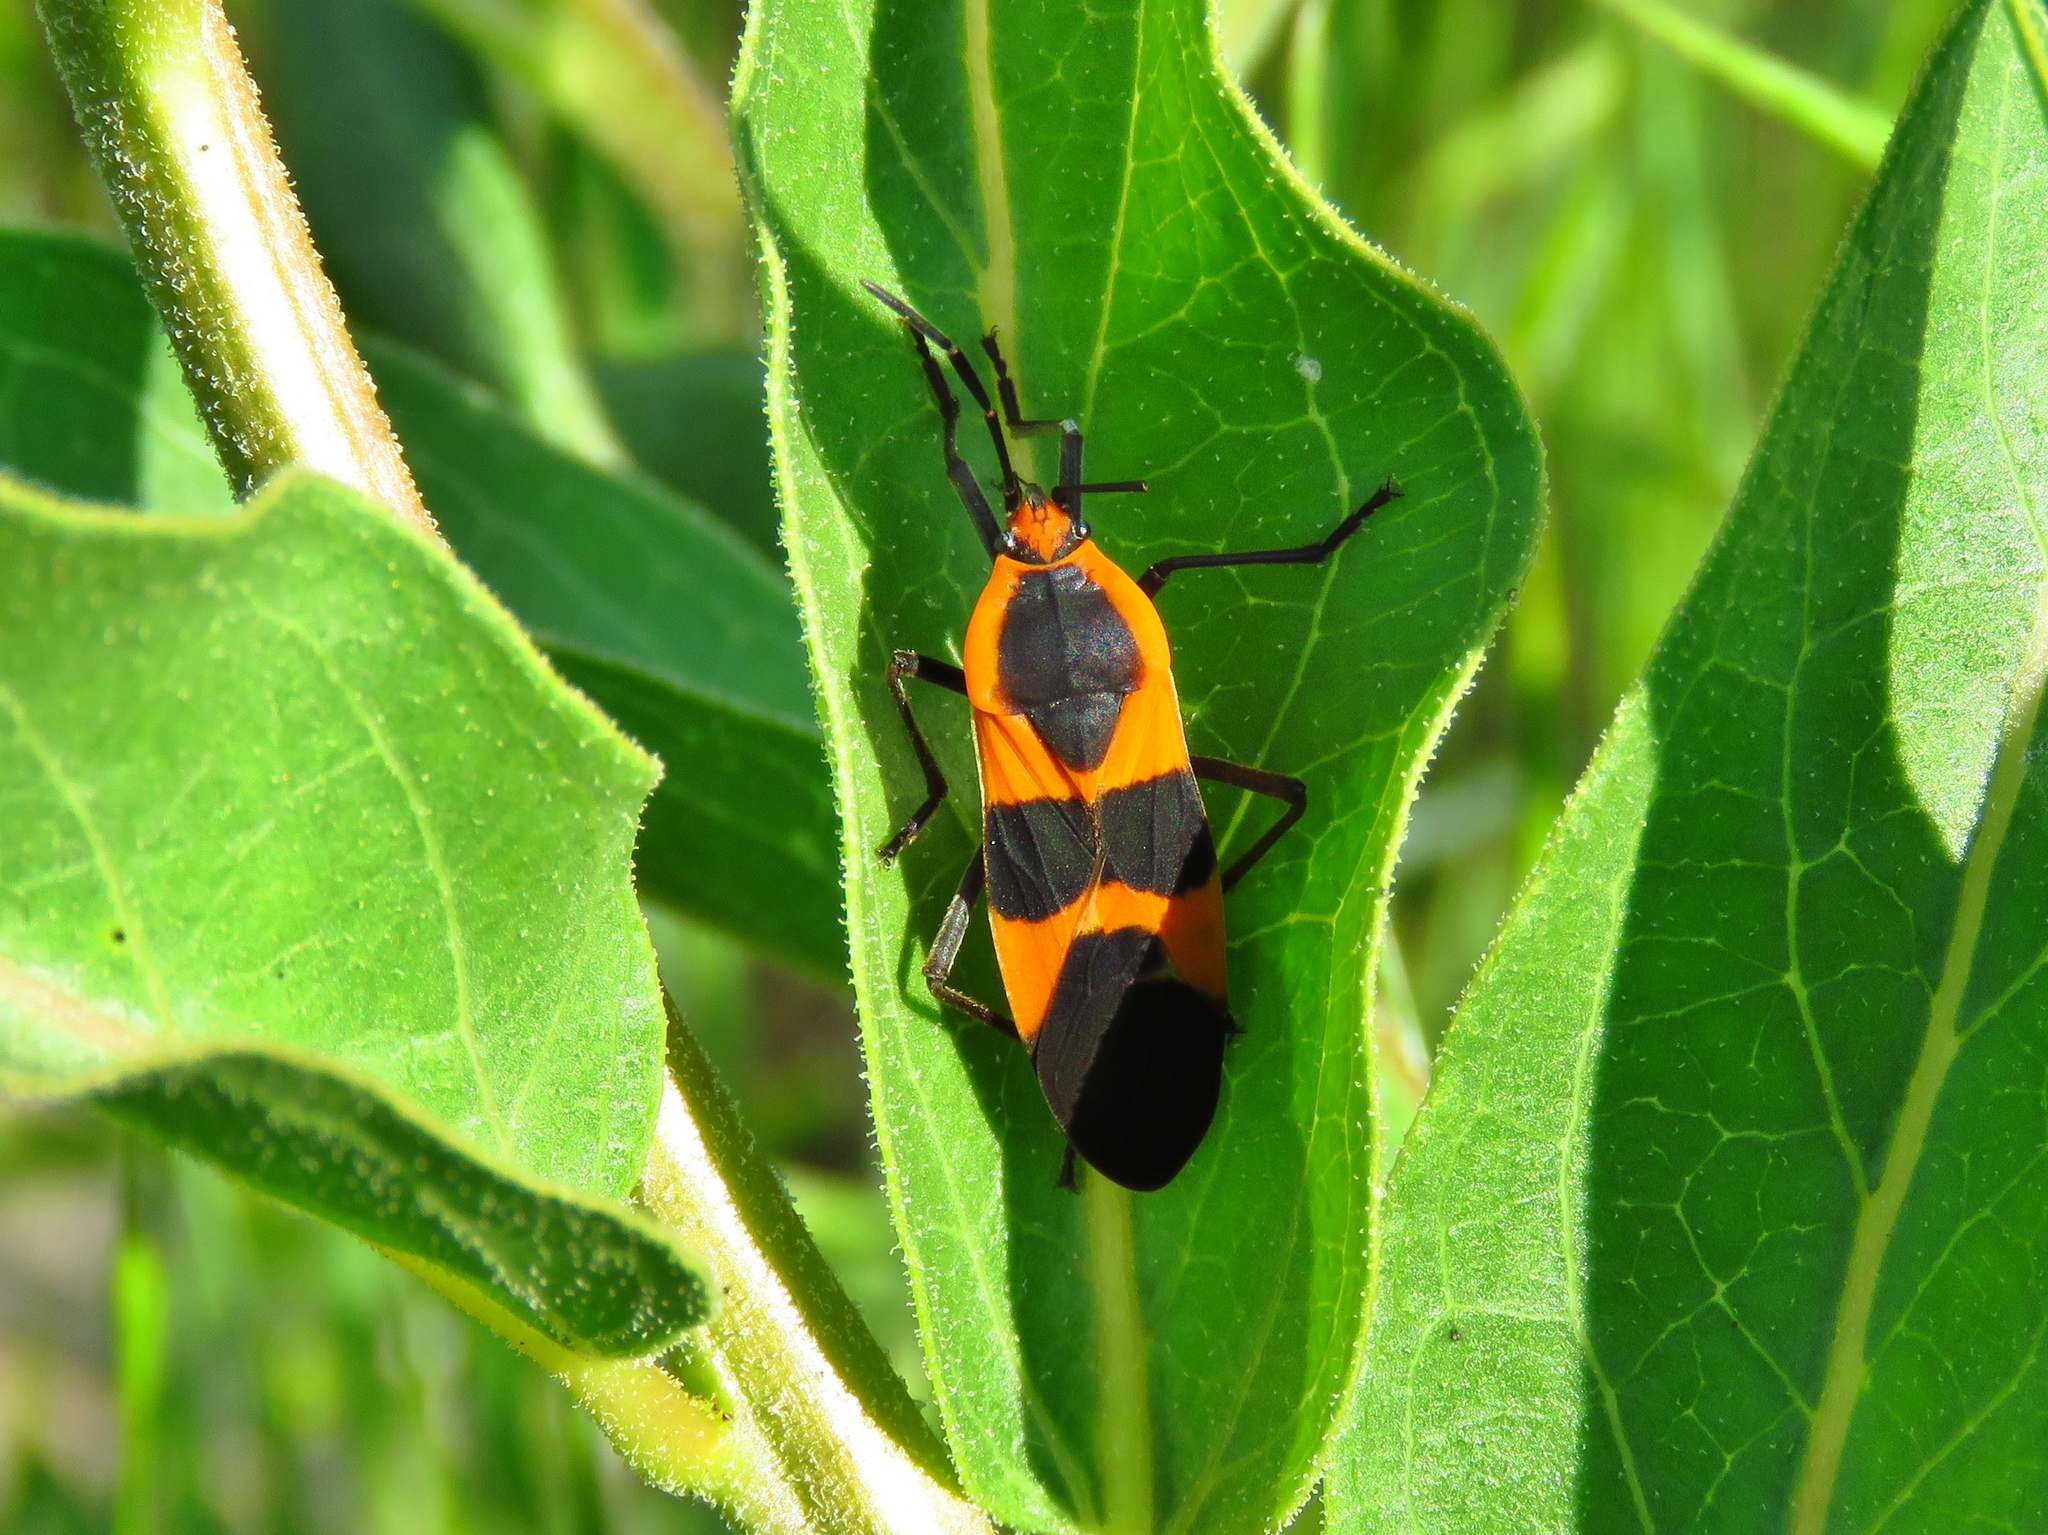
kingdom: Animalia
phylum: Arthropoda
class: Insecta
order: Hemiptera
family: Lygaeidae
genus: Oncopeltus
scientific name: Oncopeltus fasciatus
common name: Large milkweed bug
